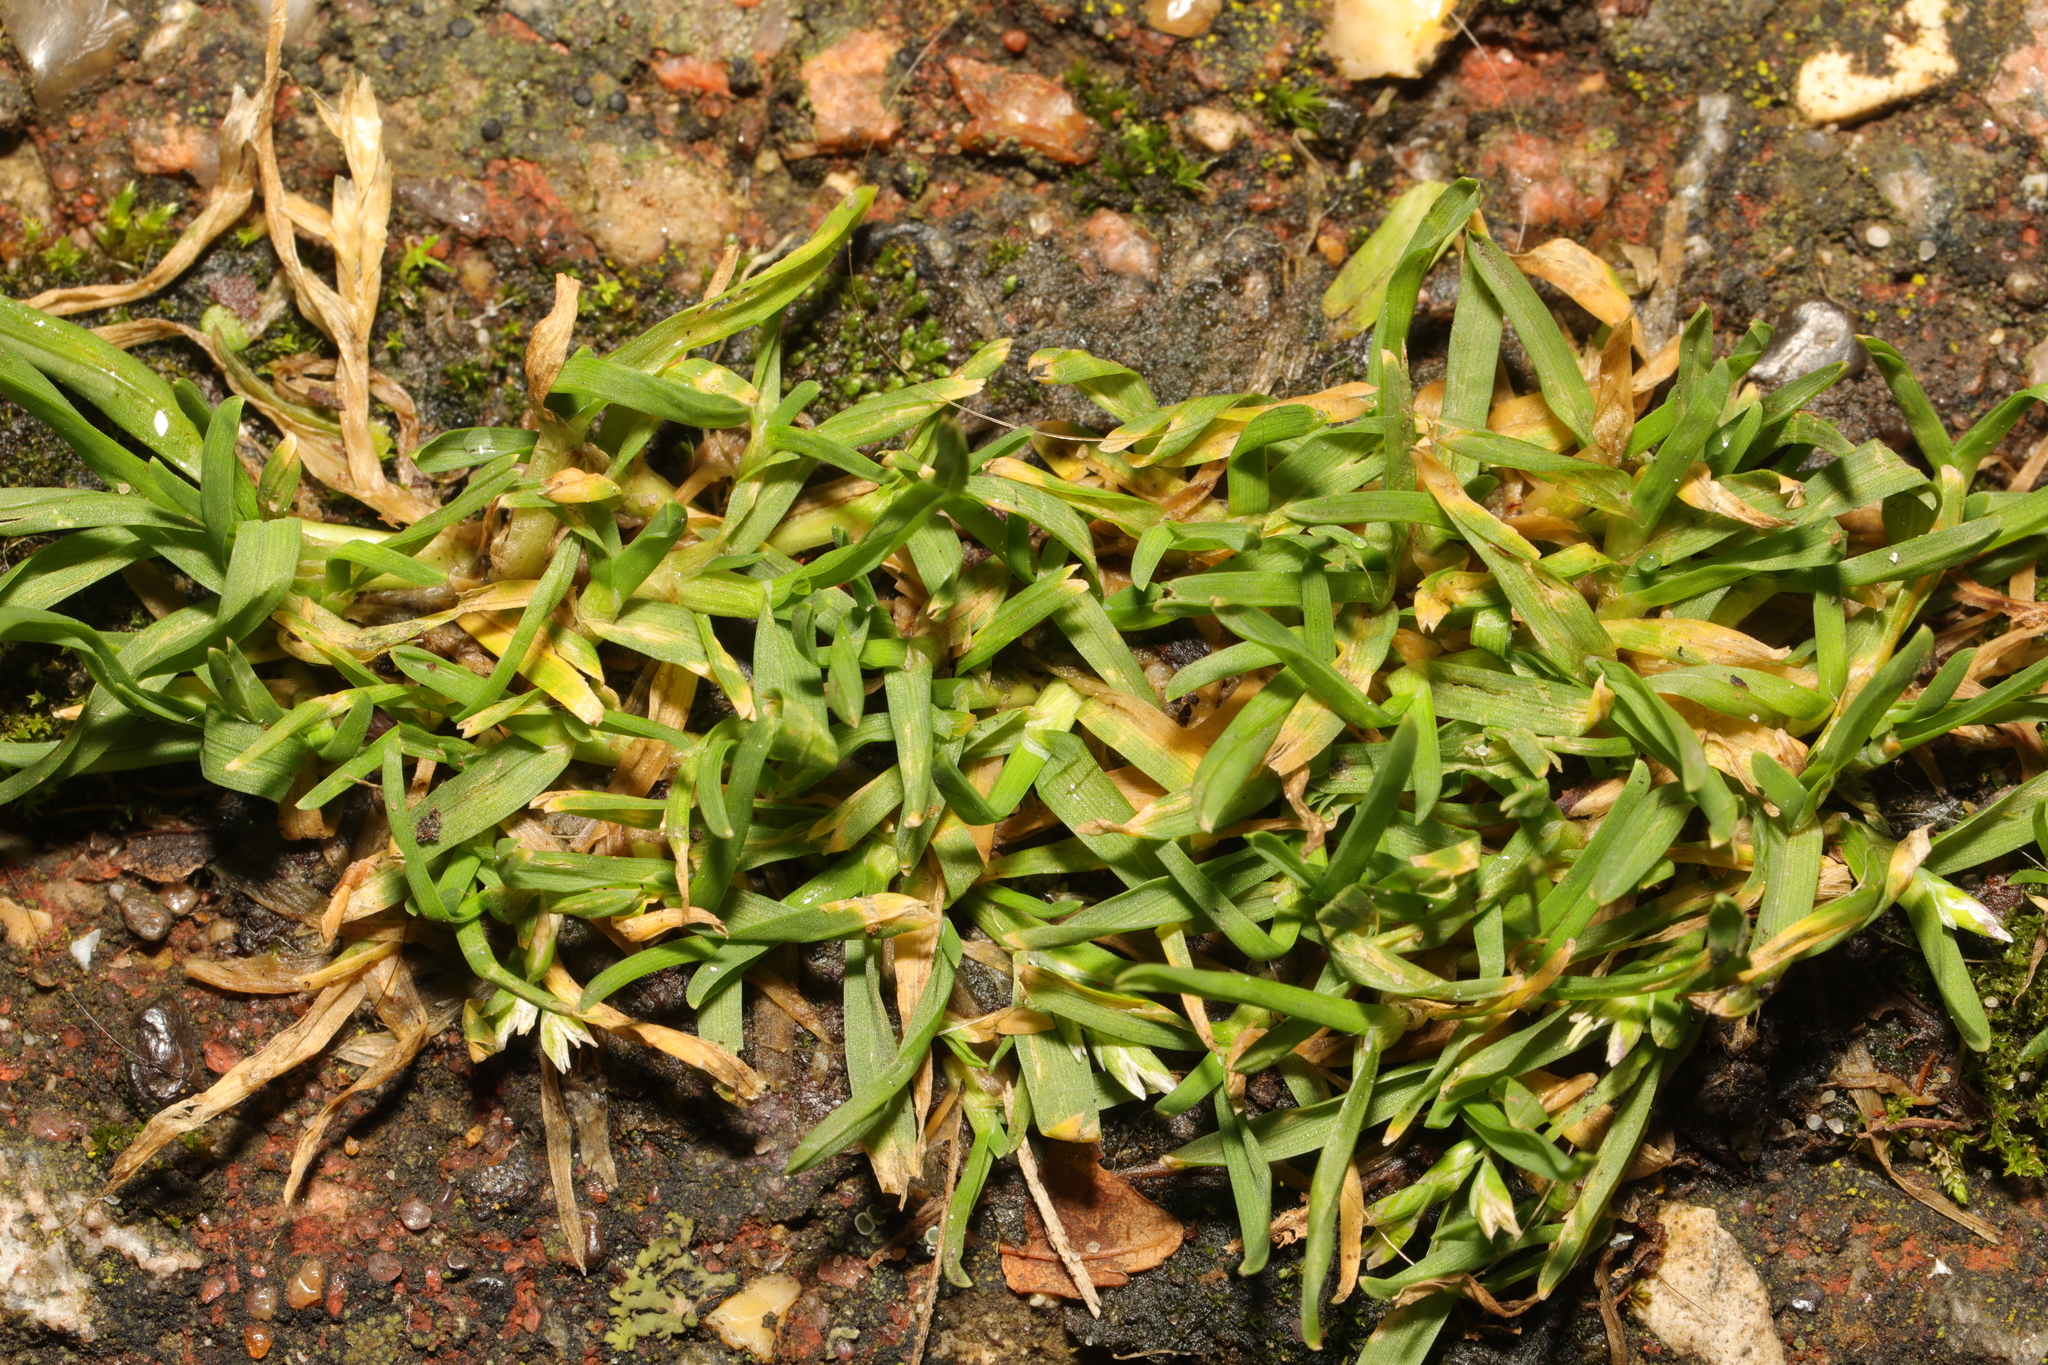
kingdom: Plantae
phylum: Tracheophyta
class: Liliopsida
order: Poales
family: Poaceae
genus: Poa
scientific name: Poa annua
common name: Annual bluegrass
